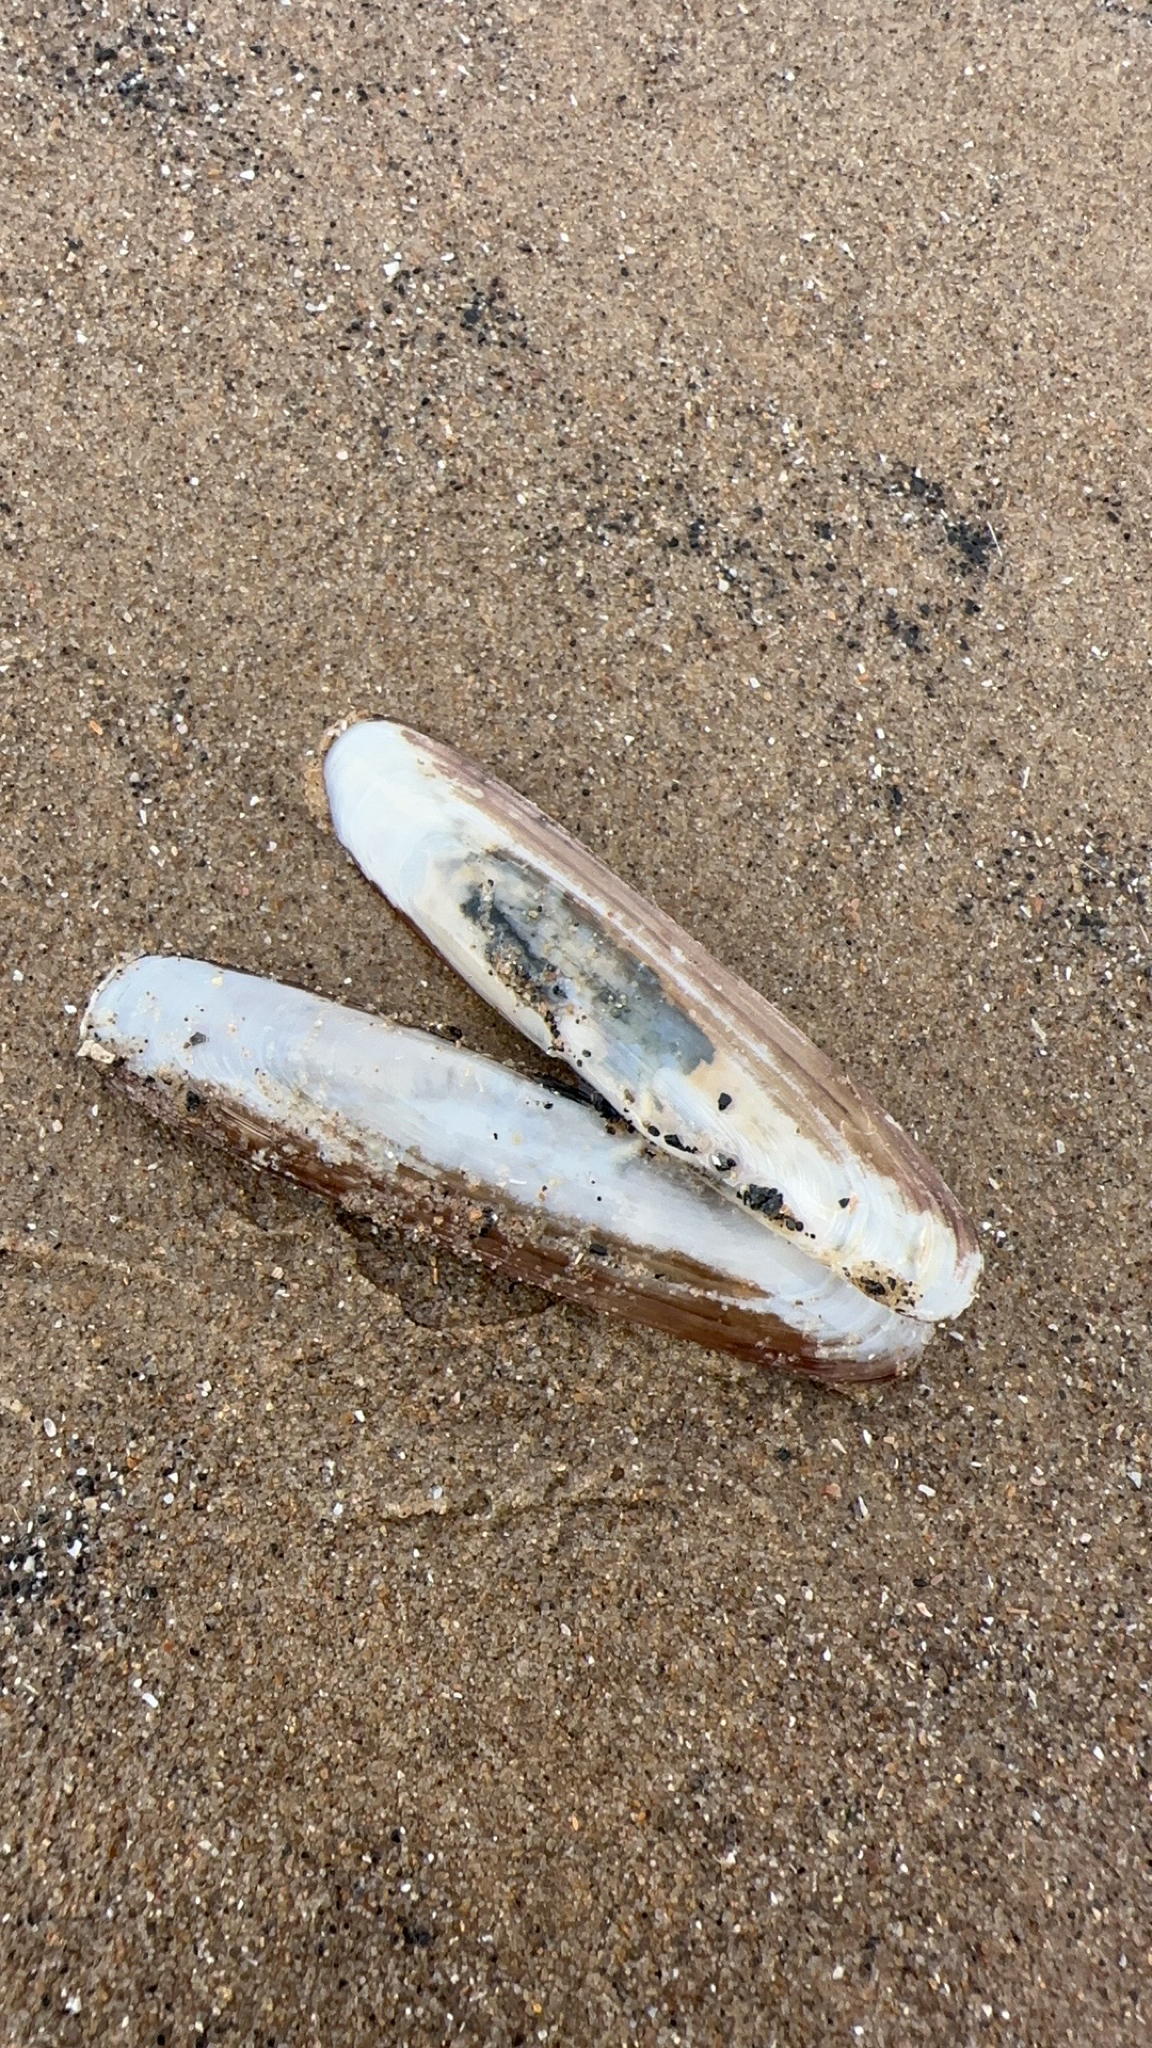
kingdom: Animalia
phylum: Mollusca
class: Bivalvia
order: Adapedonta
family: Pharidae
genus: Pharus
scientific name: Pharus legumen
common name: Bean razor clam
